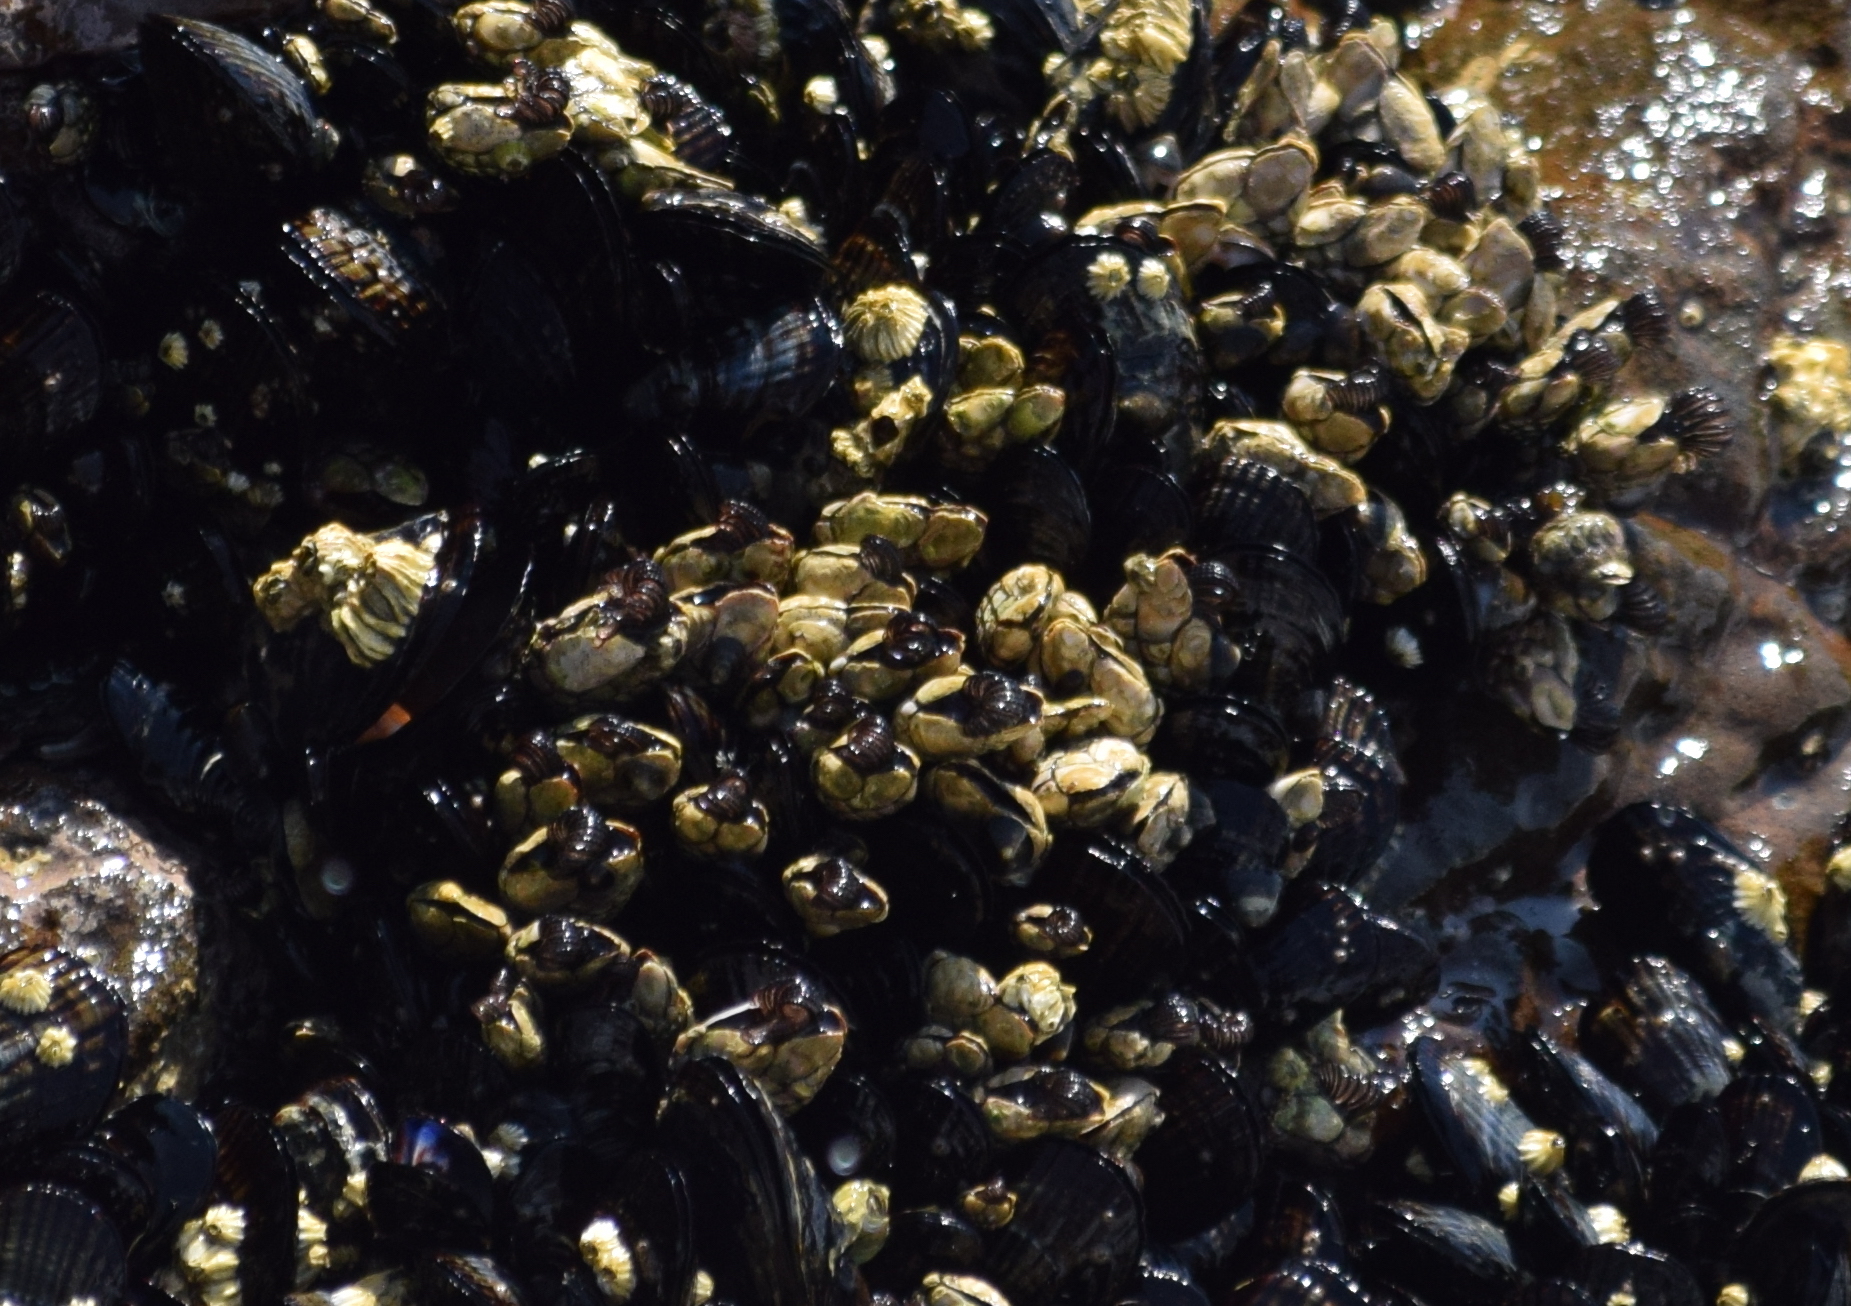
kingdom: Animalia
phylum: Arthropoda
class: Maxillopoda
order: Pedunculata
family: Pollicipedidae
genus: Pollicipes
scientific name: Pollicipes polymerus
